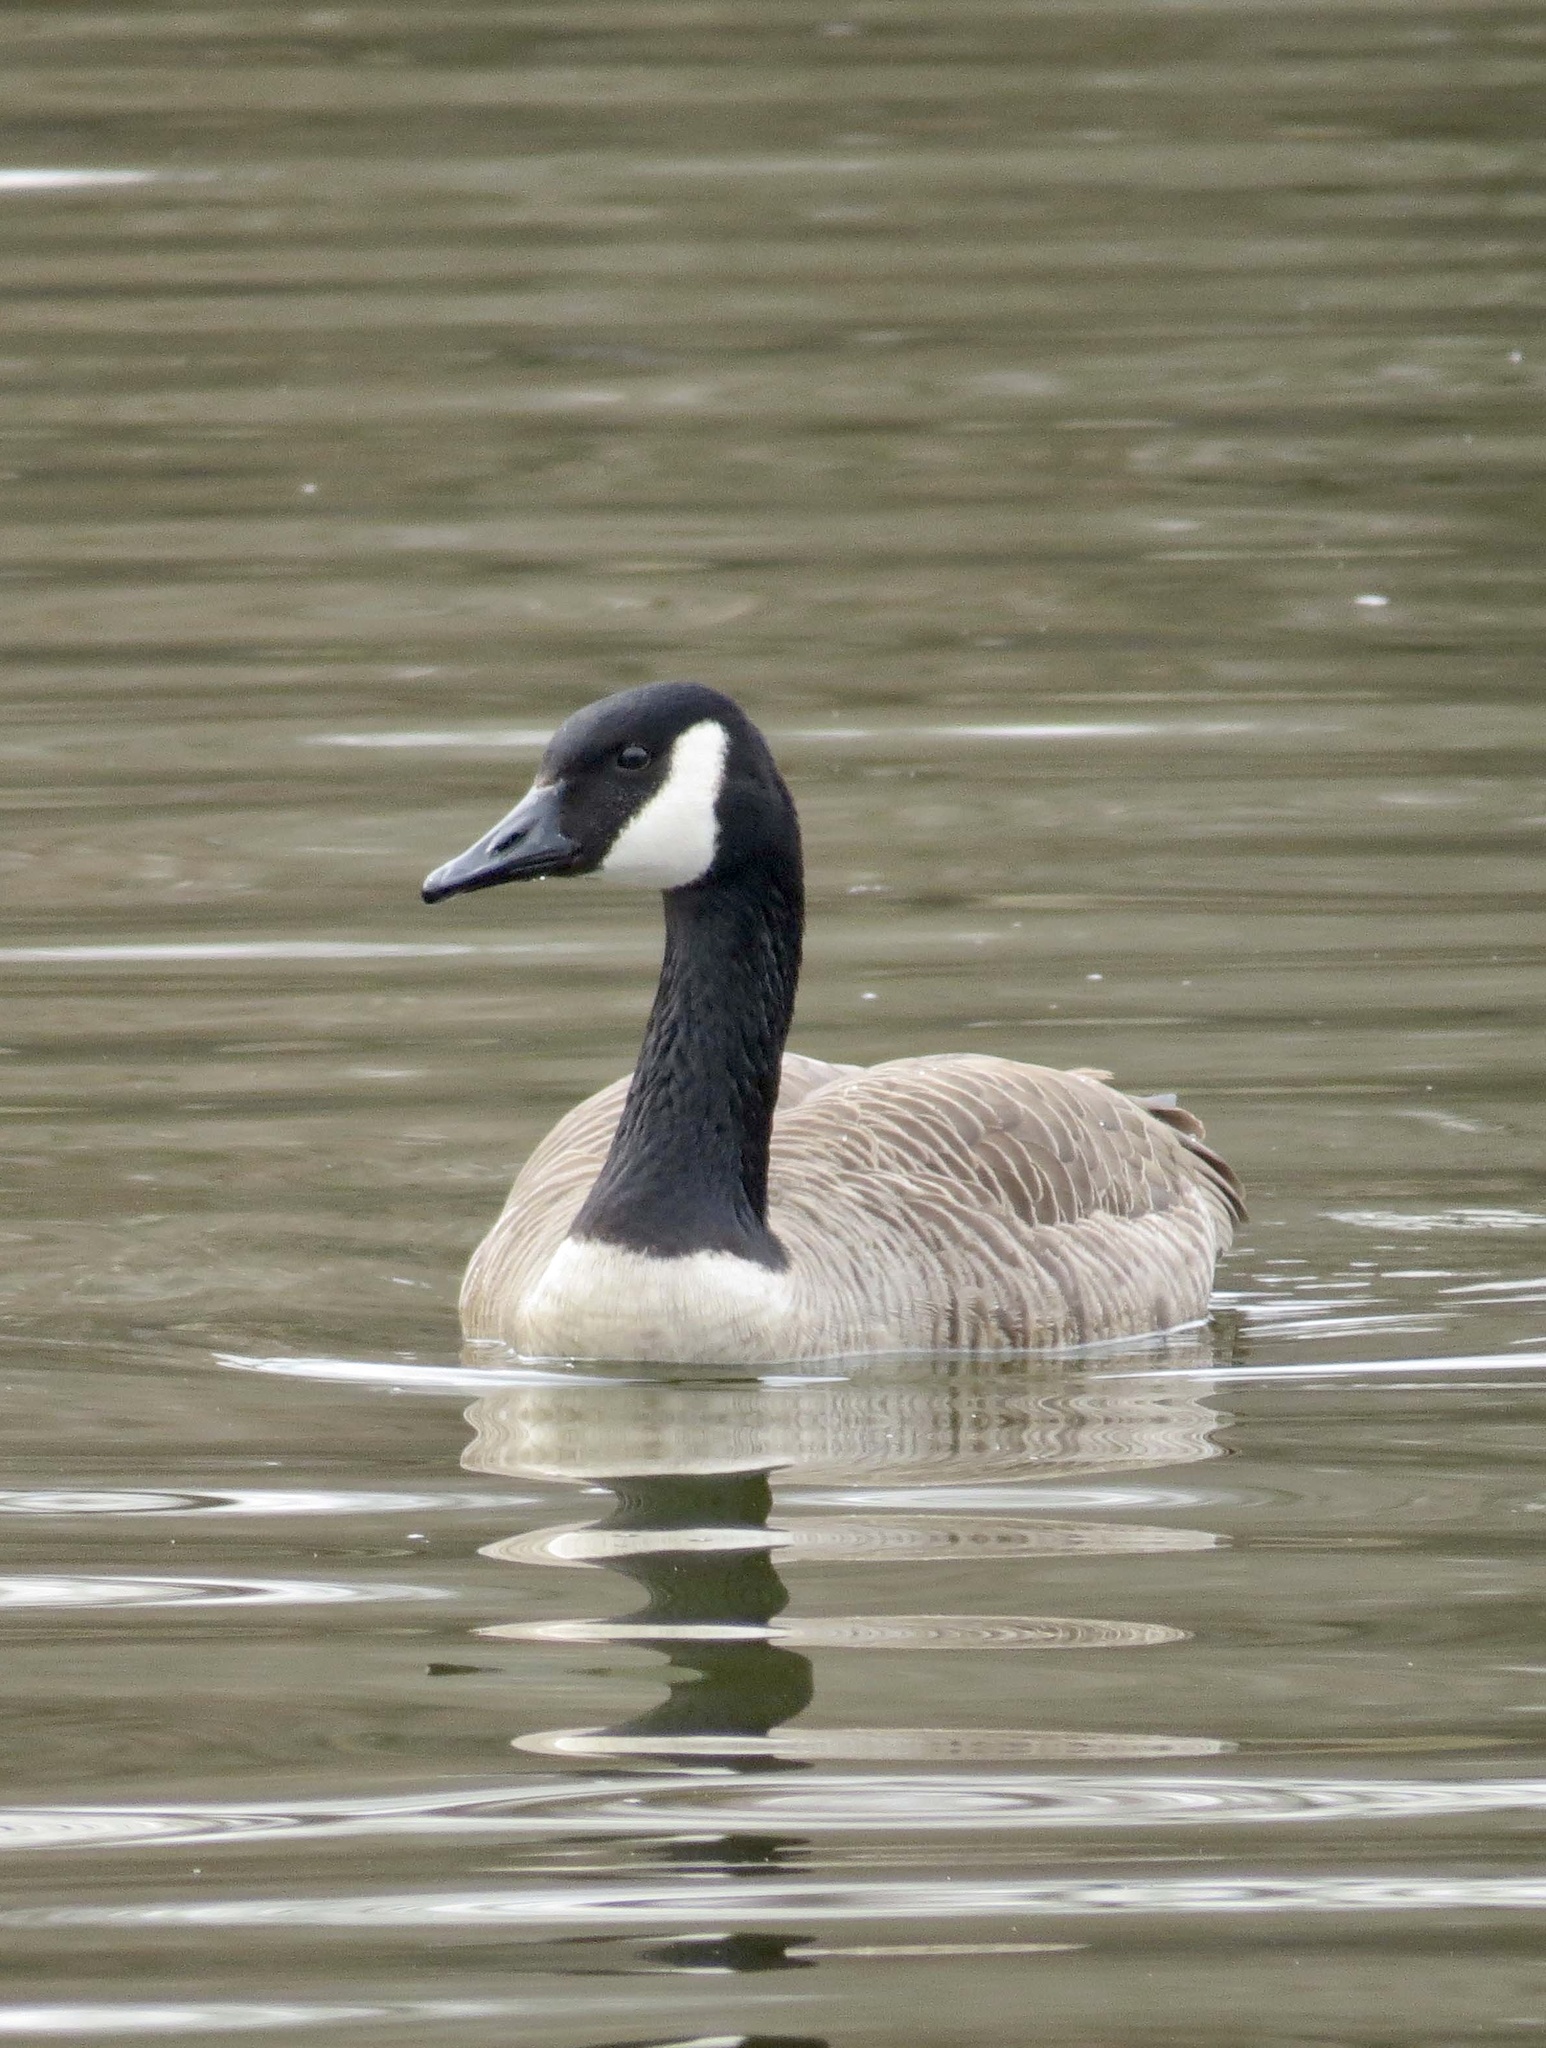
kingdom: Animalia
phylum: Chordata
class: Aves
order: Anseriformes
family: Anatidae
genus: Branta
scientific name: Branta canadensis
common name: Canada goose
